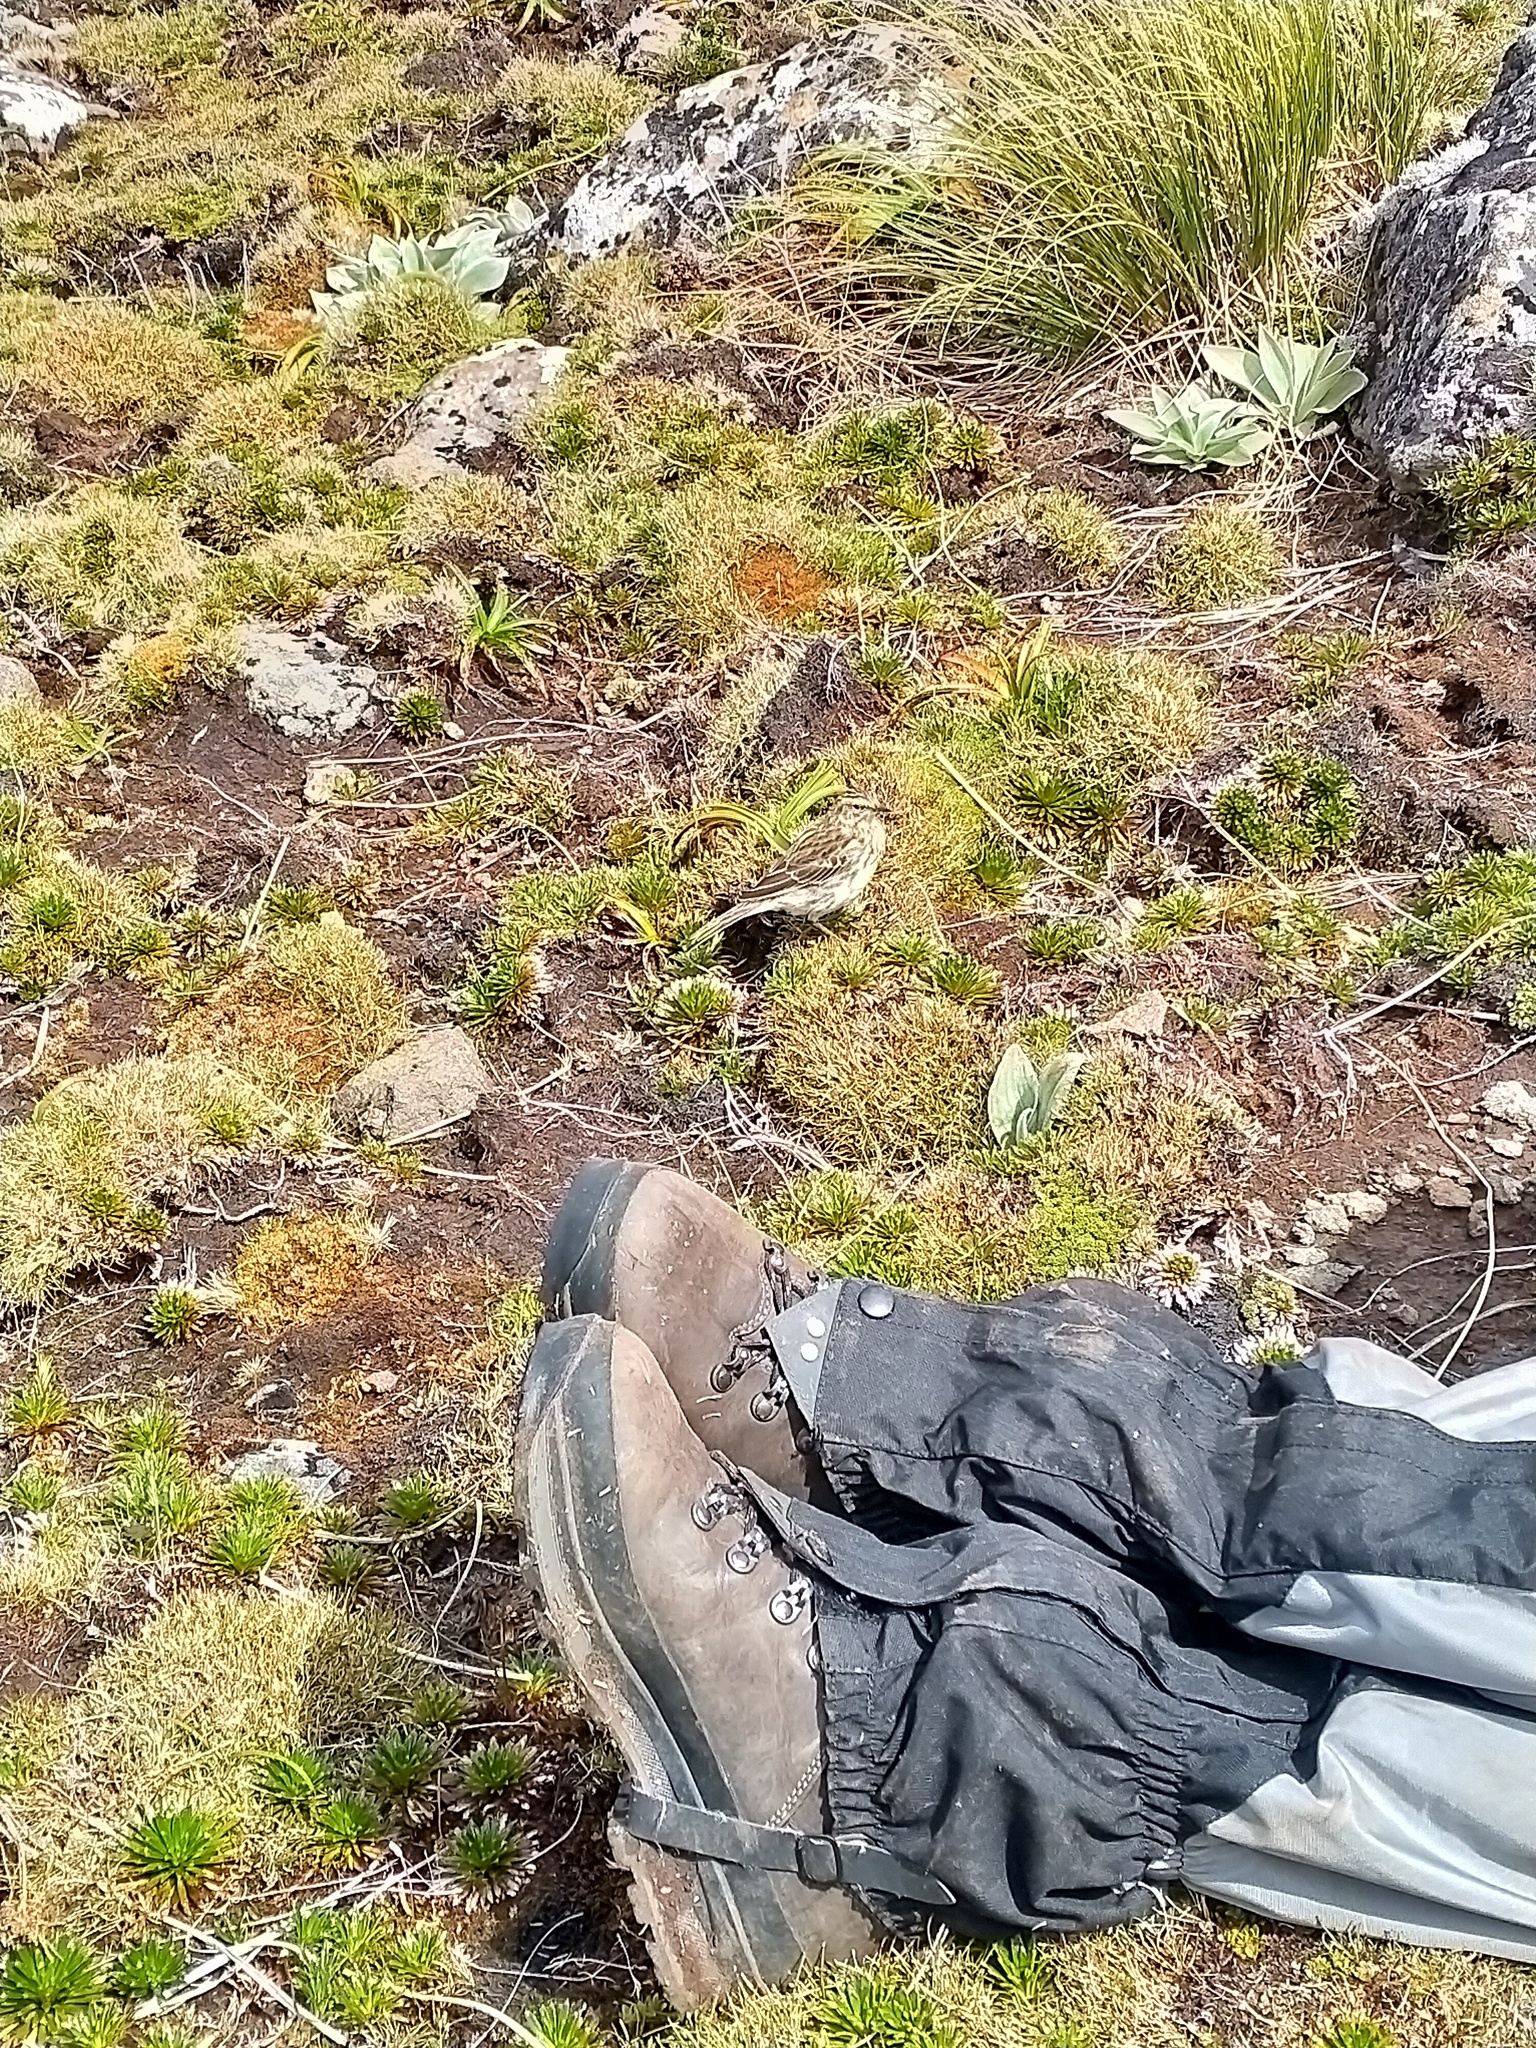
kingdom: Animalia
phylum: Chordata
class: Aves
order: Passeriformes
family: Motacillidae
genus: Anthus
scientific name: Anthus novaeseelandiae
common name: New zealand pipit
